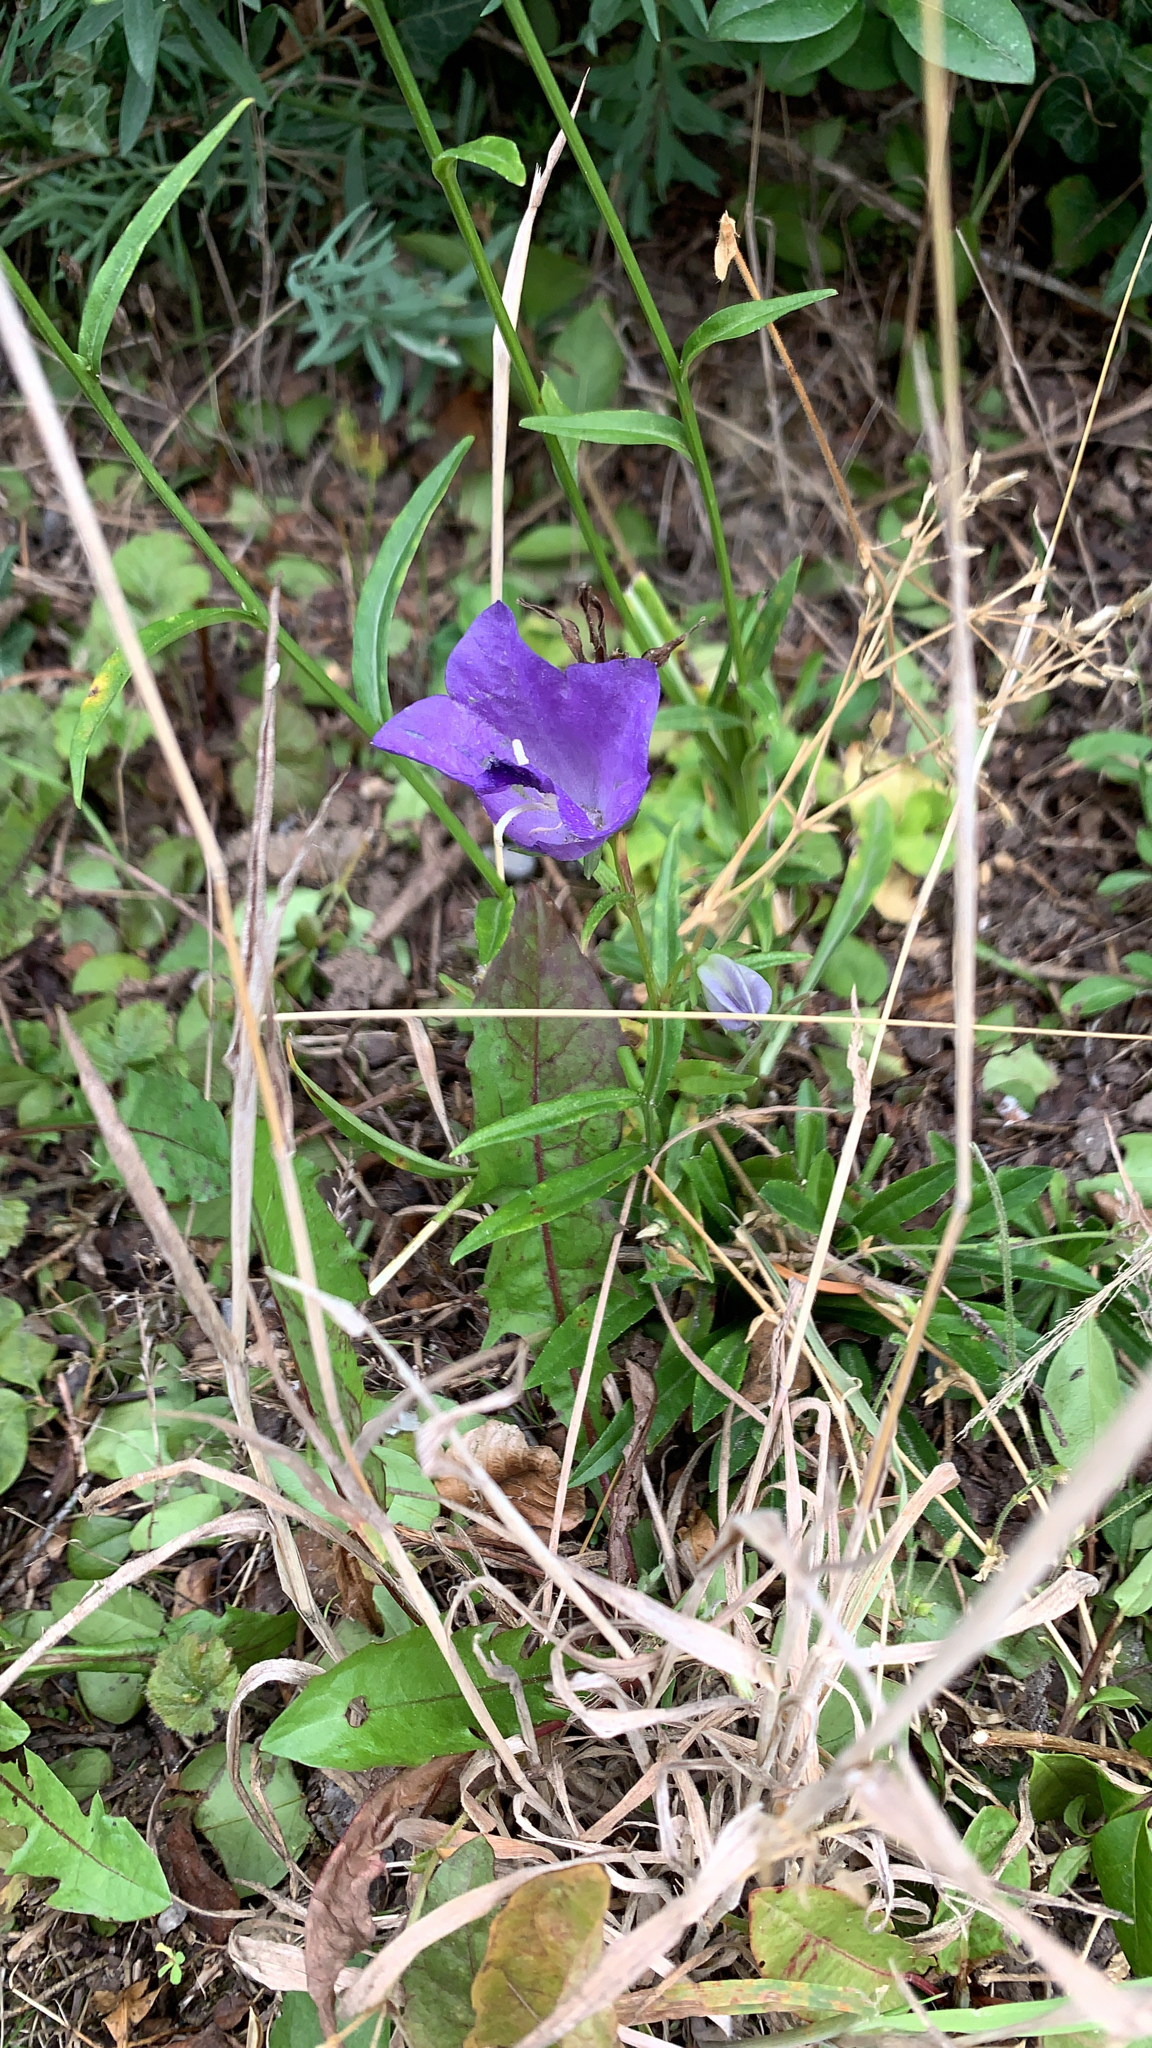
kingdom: Plantae
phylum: Tracheophyta
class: Magnoliopsida
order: Asterales
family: Campanulaceae
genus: Campanula
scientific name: Campanula persicifolia
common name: Peach-leaved bellflower
